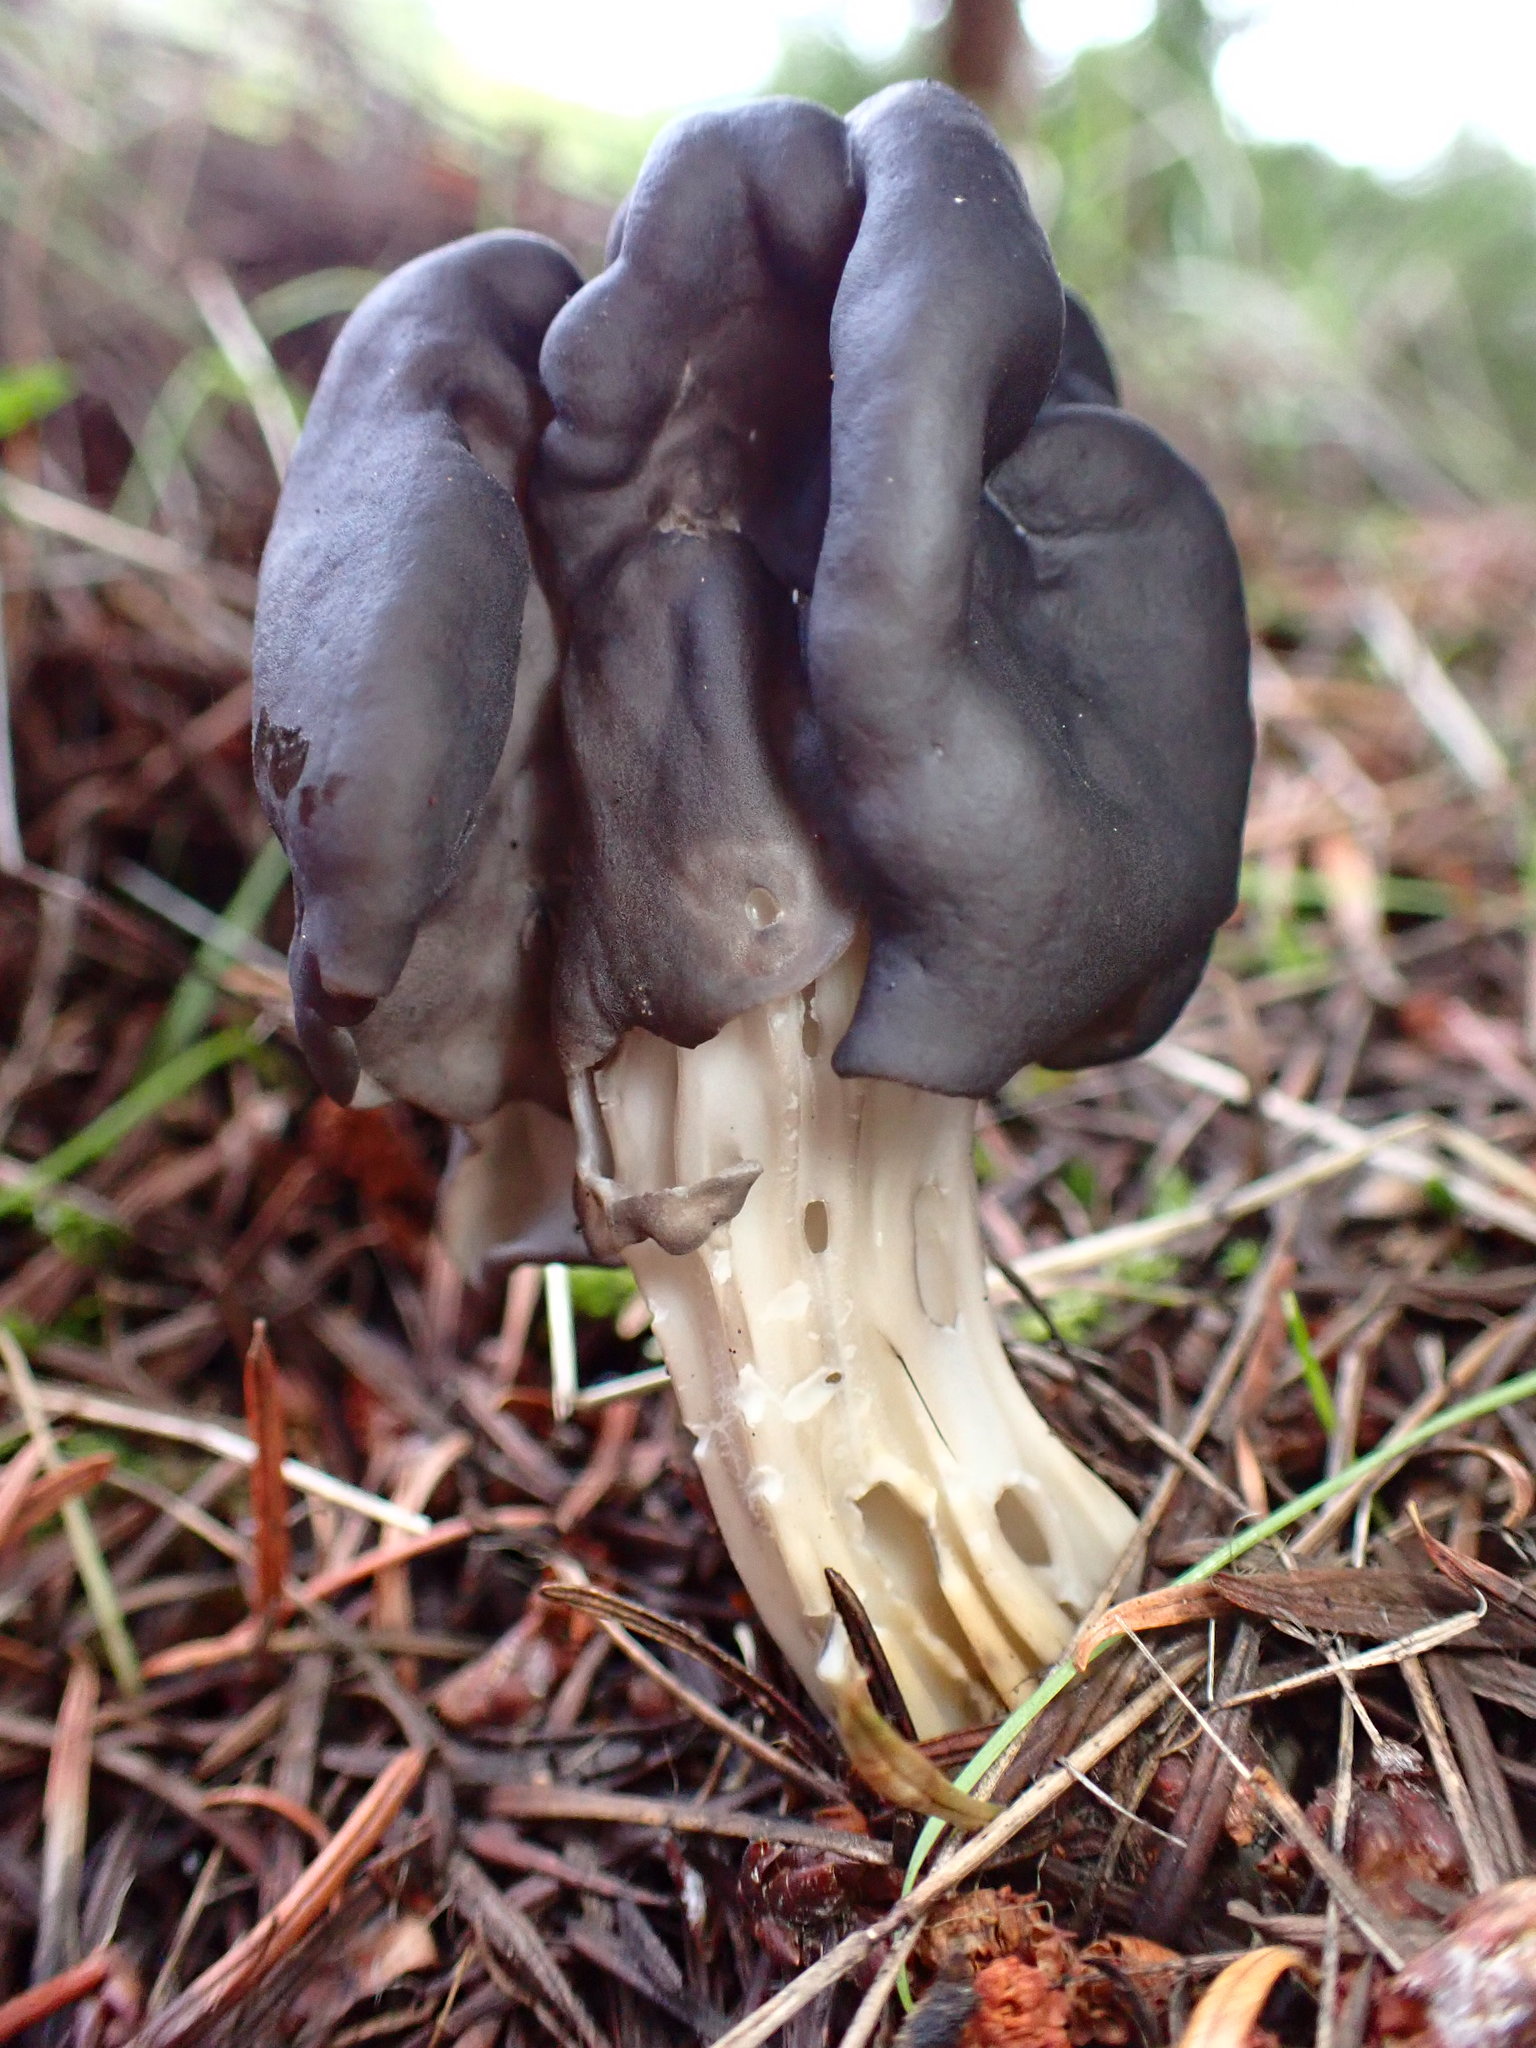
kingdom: Fungi
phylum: Ascomycota
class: Pezizomycetes
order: Pezizales
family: Helvellaceae
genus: Helvella
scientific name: Helvella vespertina
